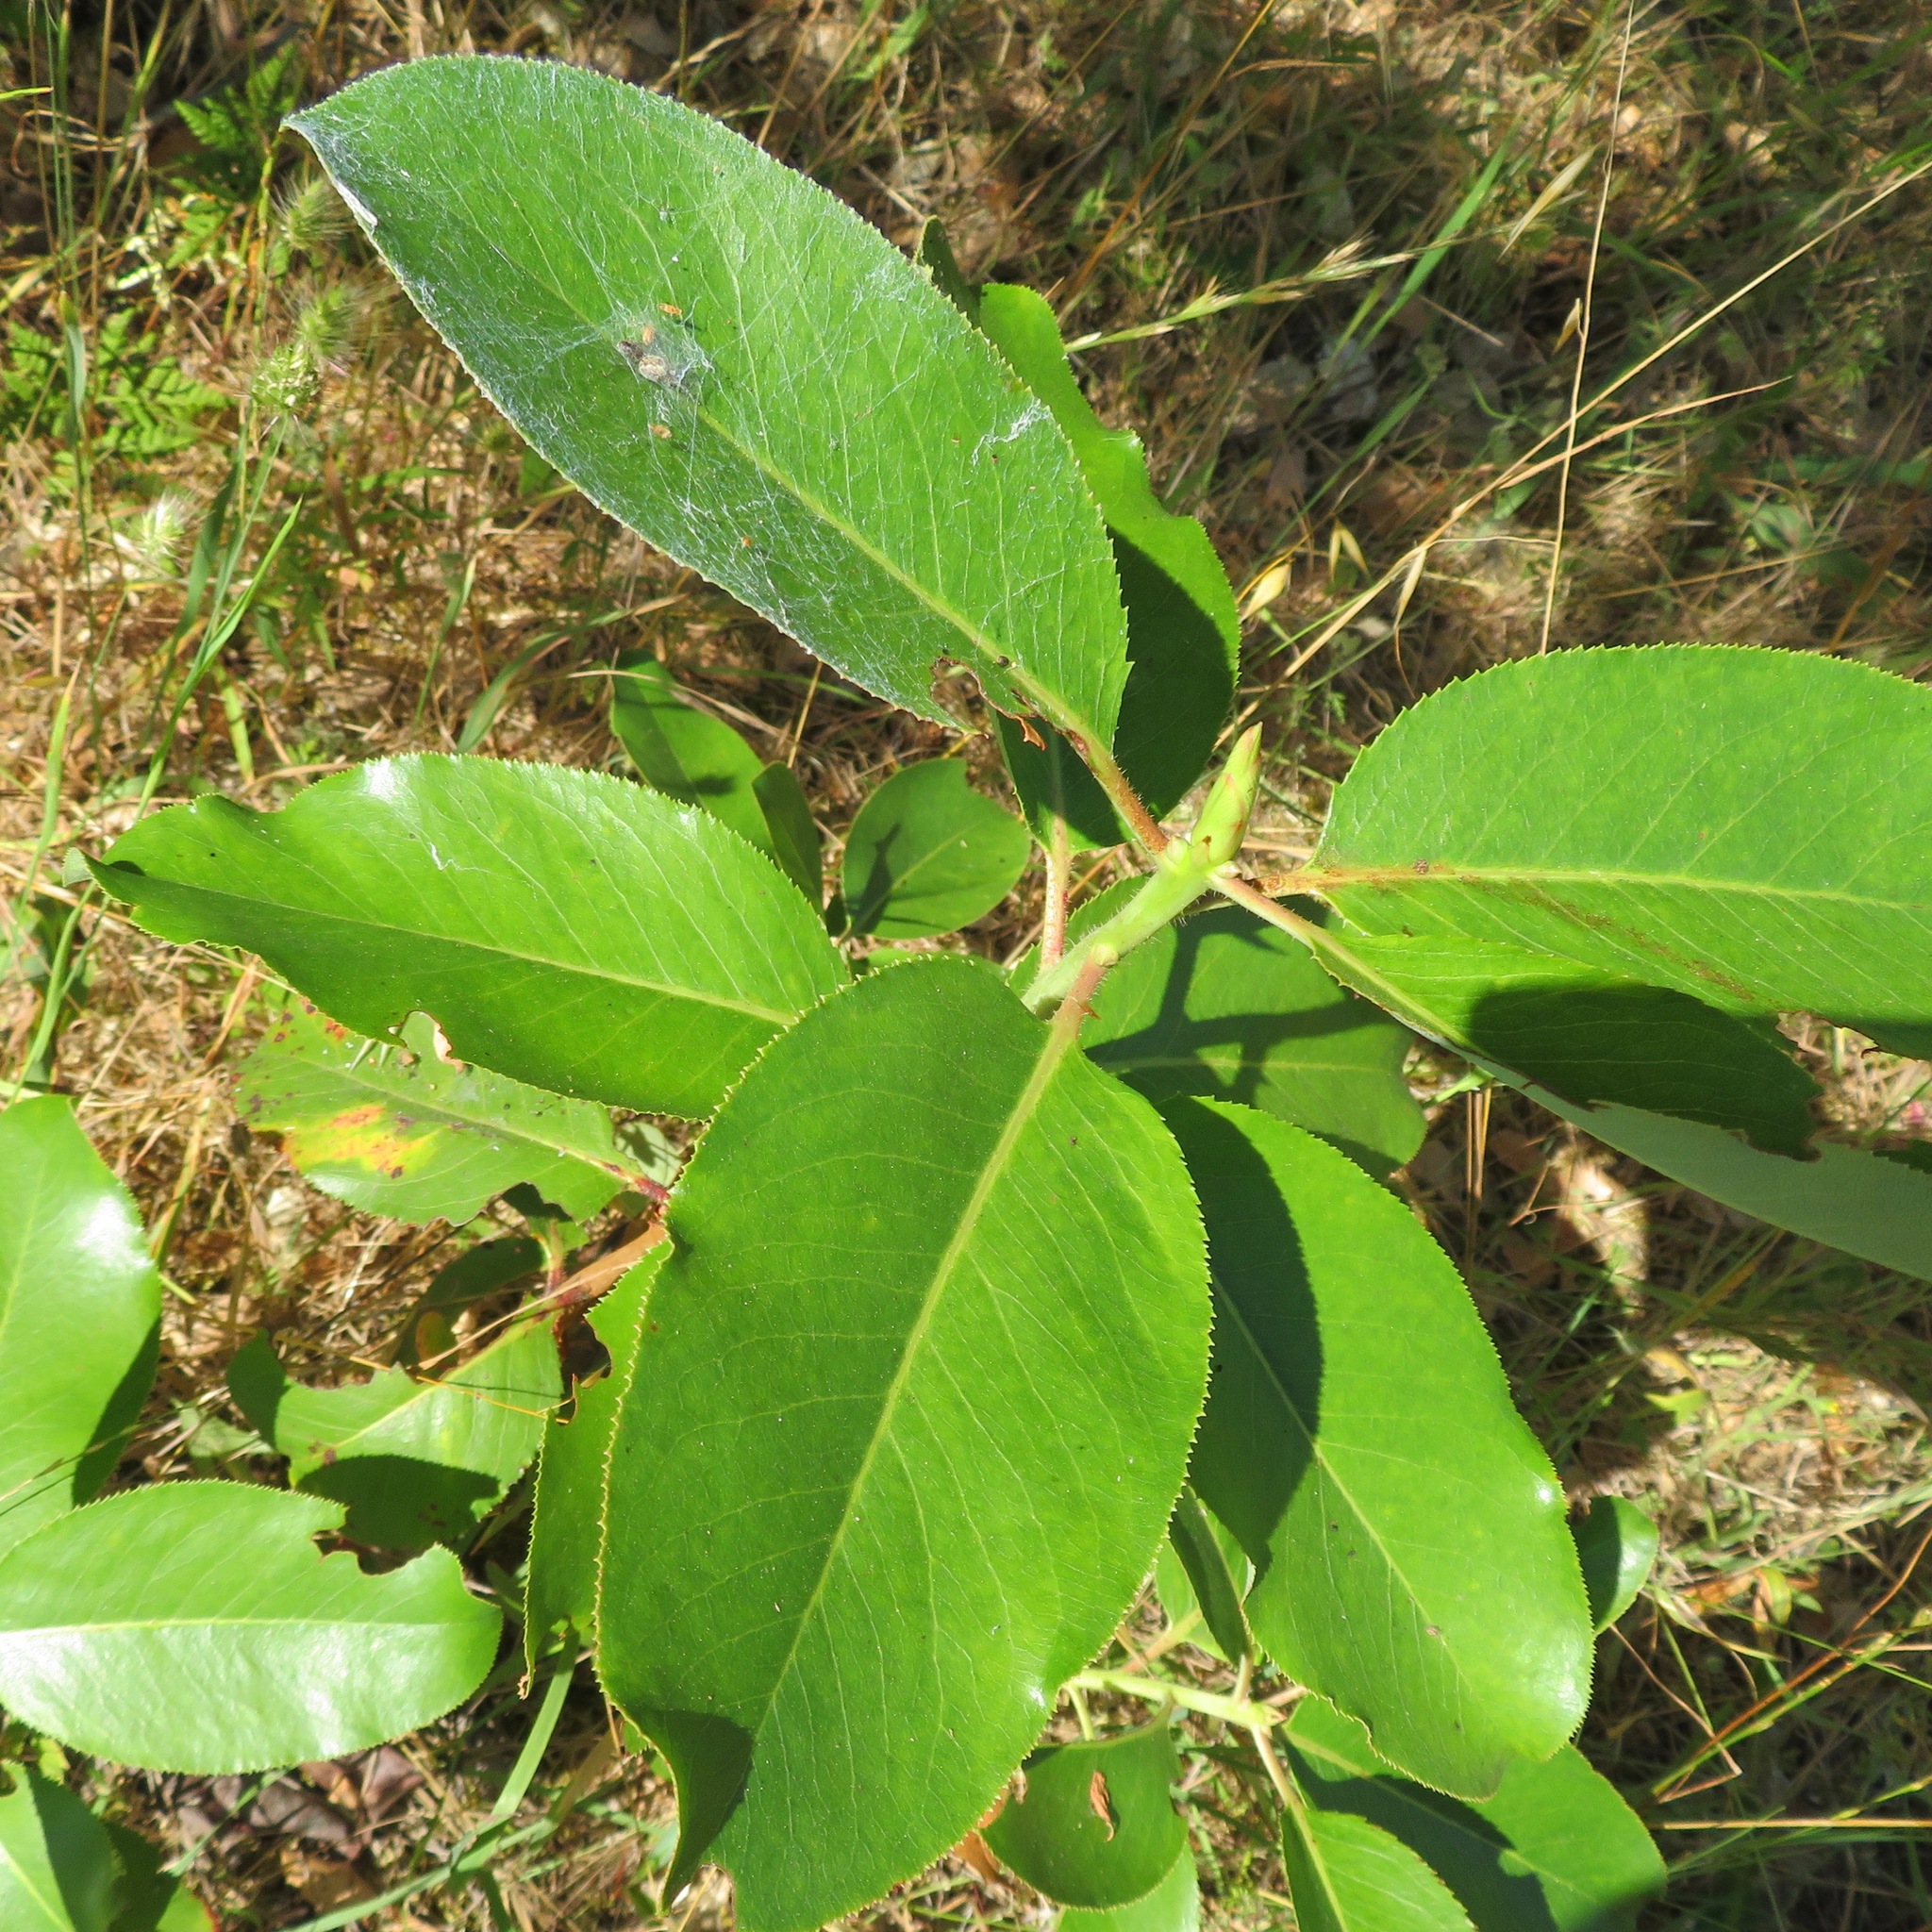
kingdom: Plantae
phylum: Tracheophyta
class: Magnoliopsida
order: Ericales
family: Ericaceae
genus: Arbutus
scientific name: Arbutus menziesii
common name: Pacific madrone
